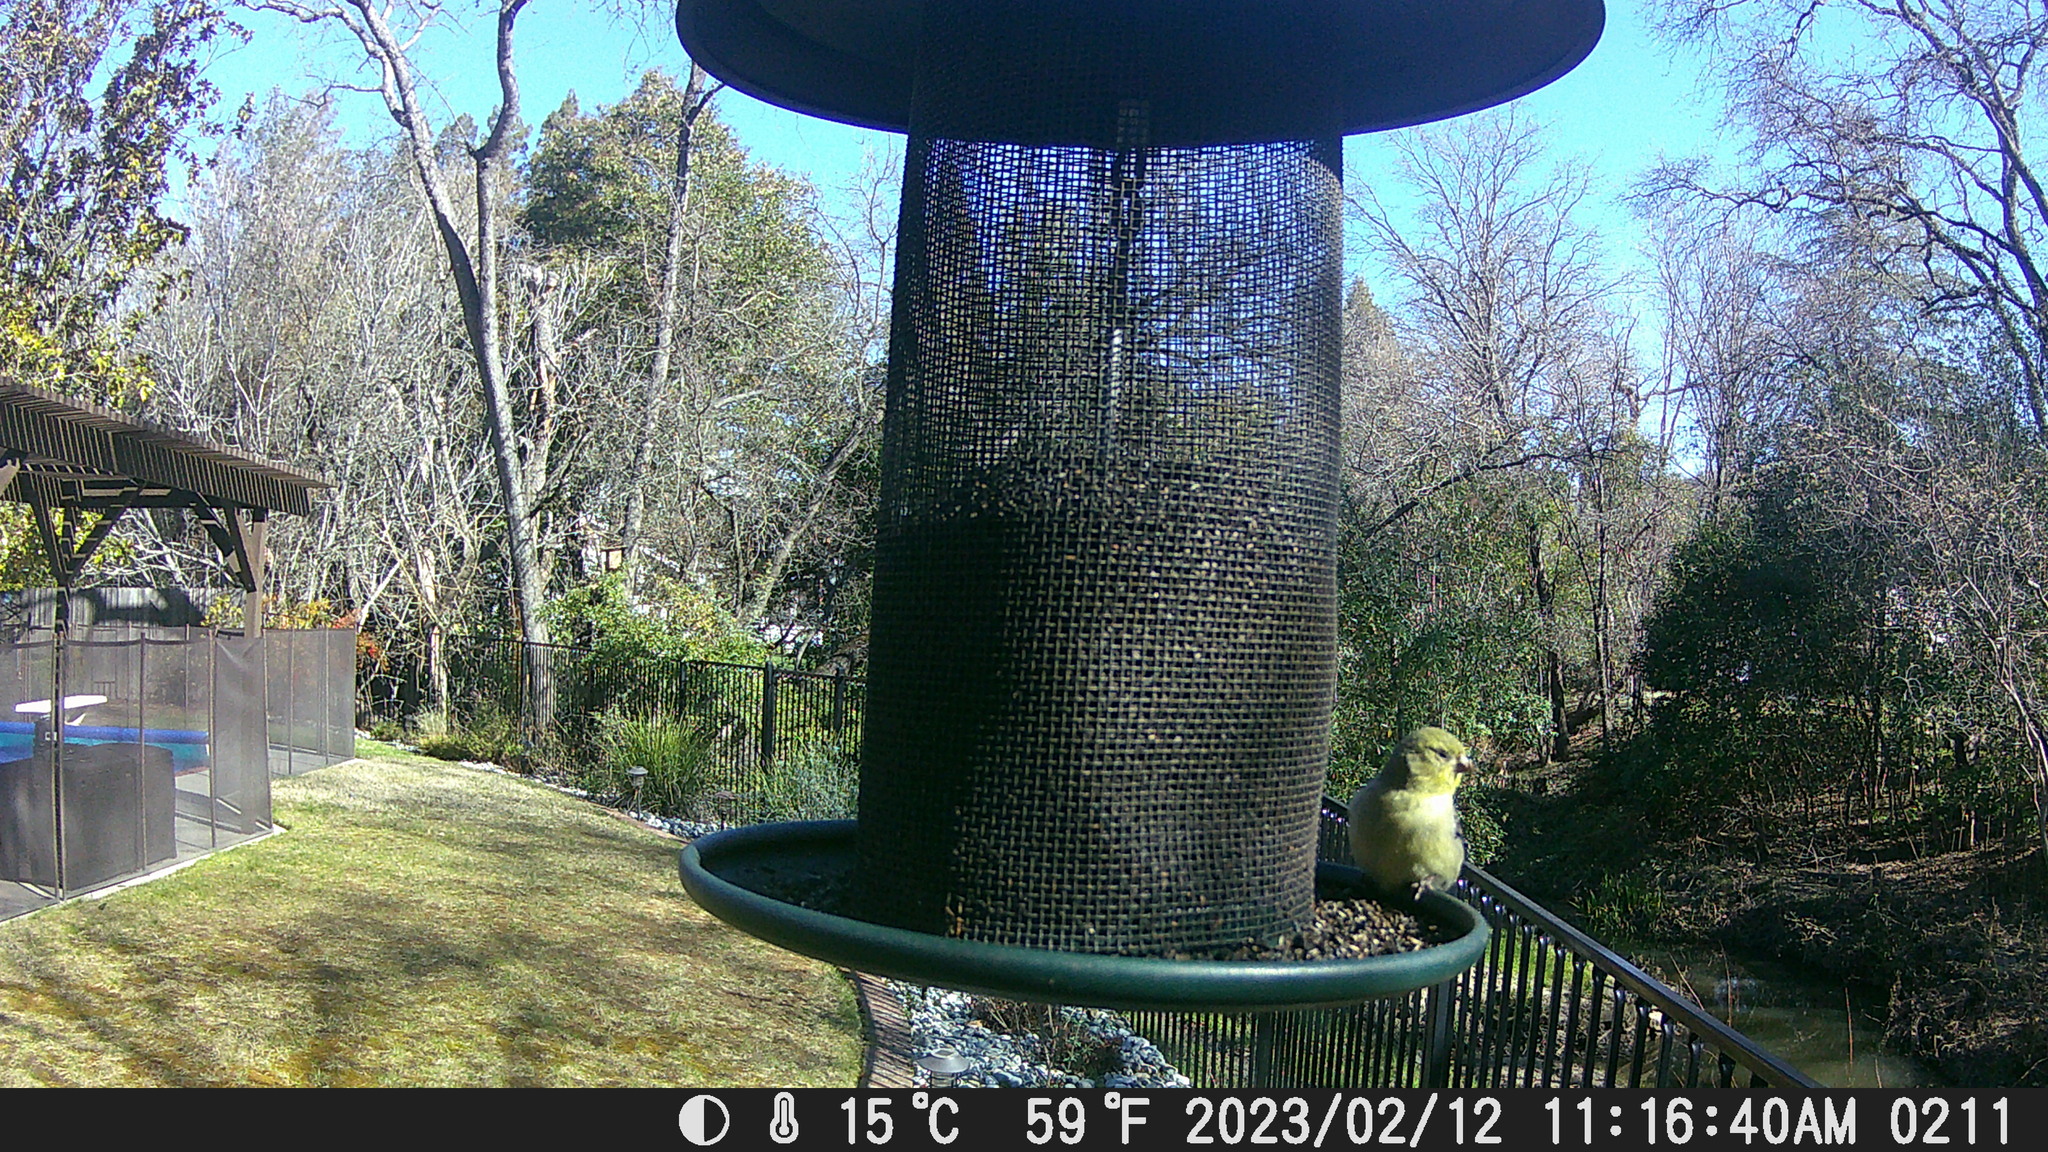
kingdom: Animalia
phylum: Chordata
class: Aves
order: Passeriformes
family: Fringillidae
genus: Spinus
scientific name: Spinus psaltria
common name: Lesser goldfinch
